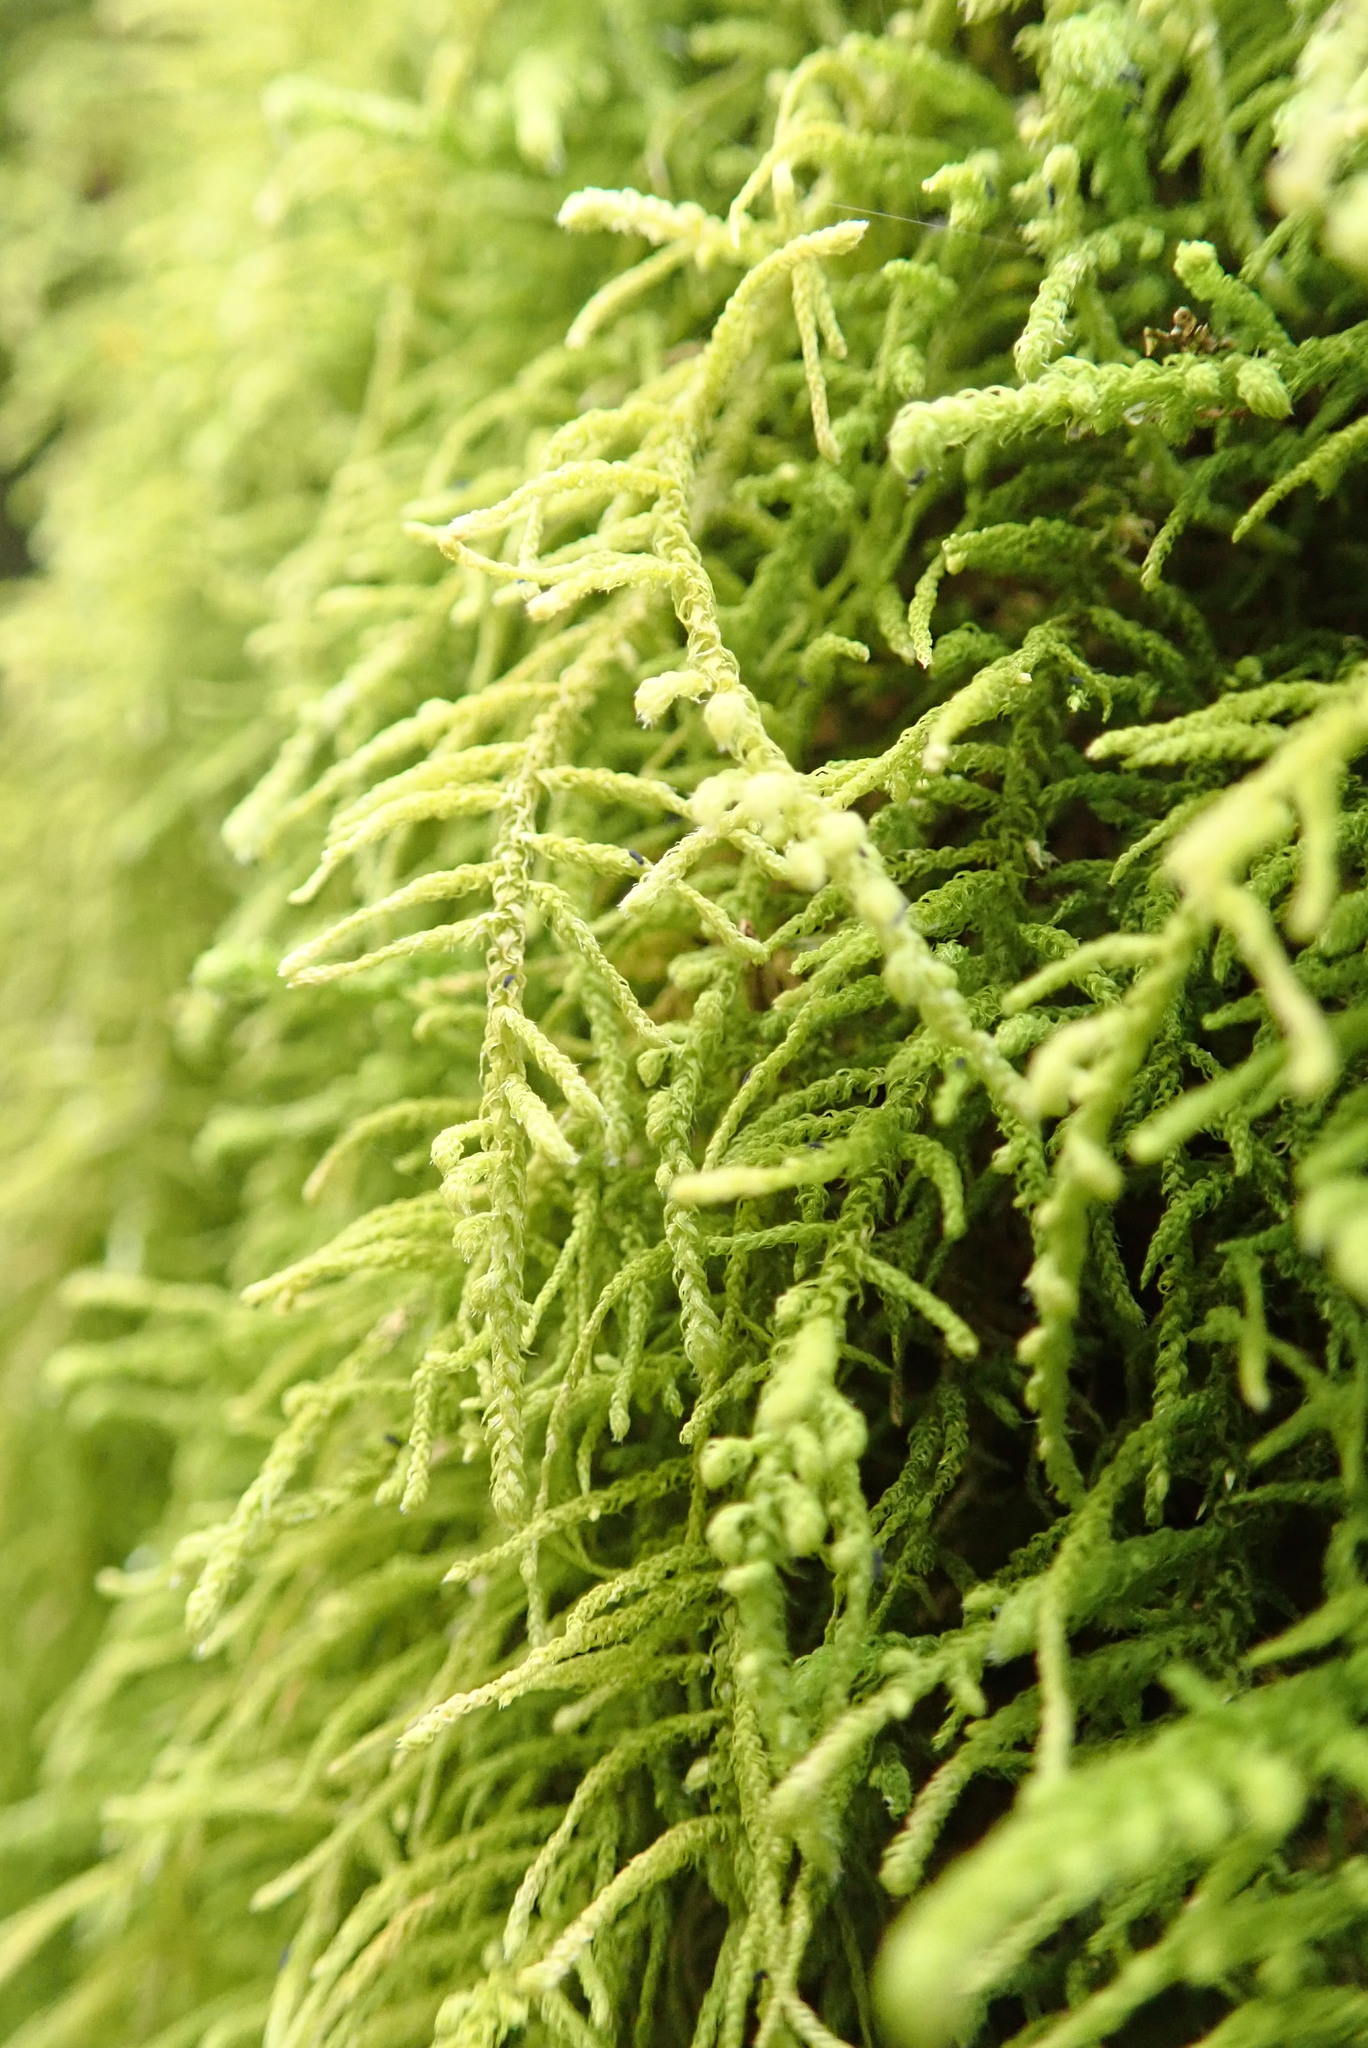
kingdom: Plantae
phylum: Bryophyta
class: Bryopsida
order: Hypnales
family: Brachytheciaceae
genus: Claopodium
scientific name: Claopodium crispifolium
